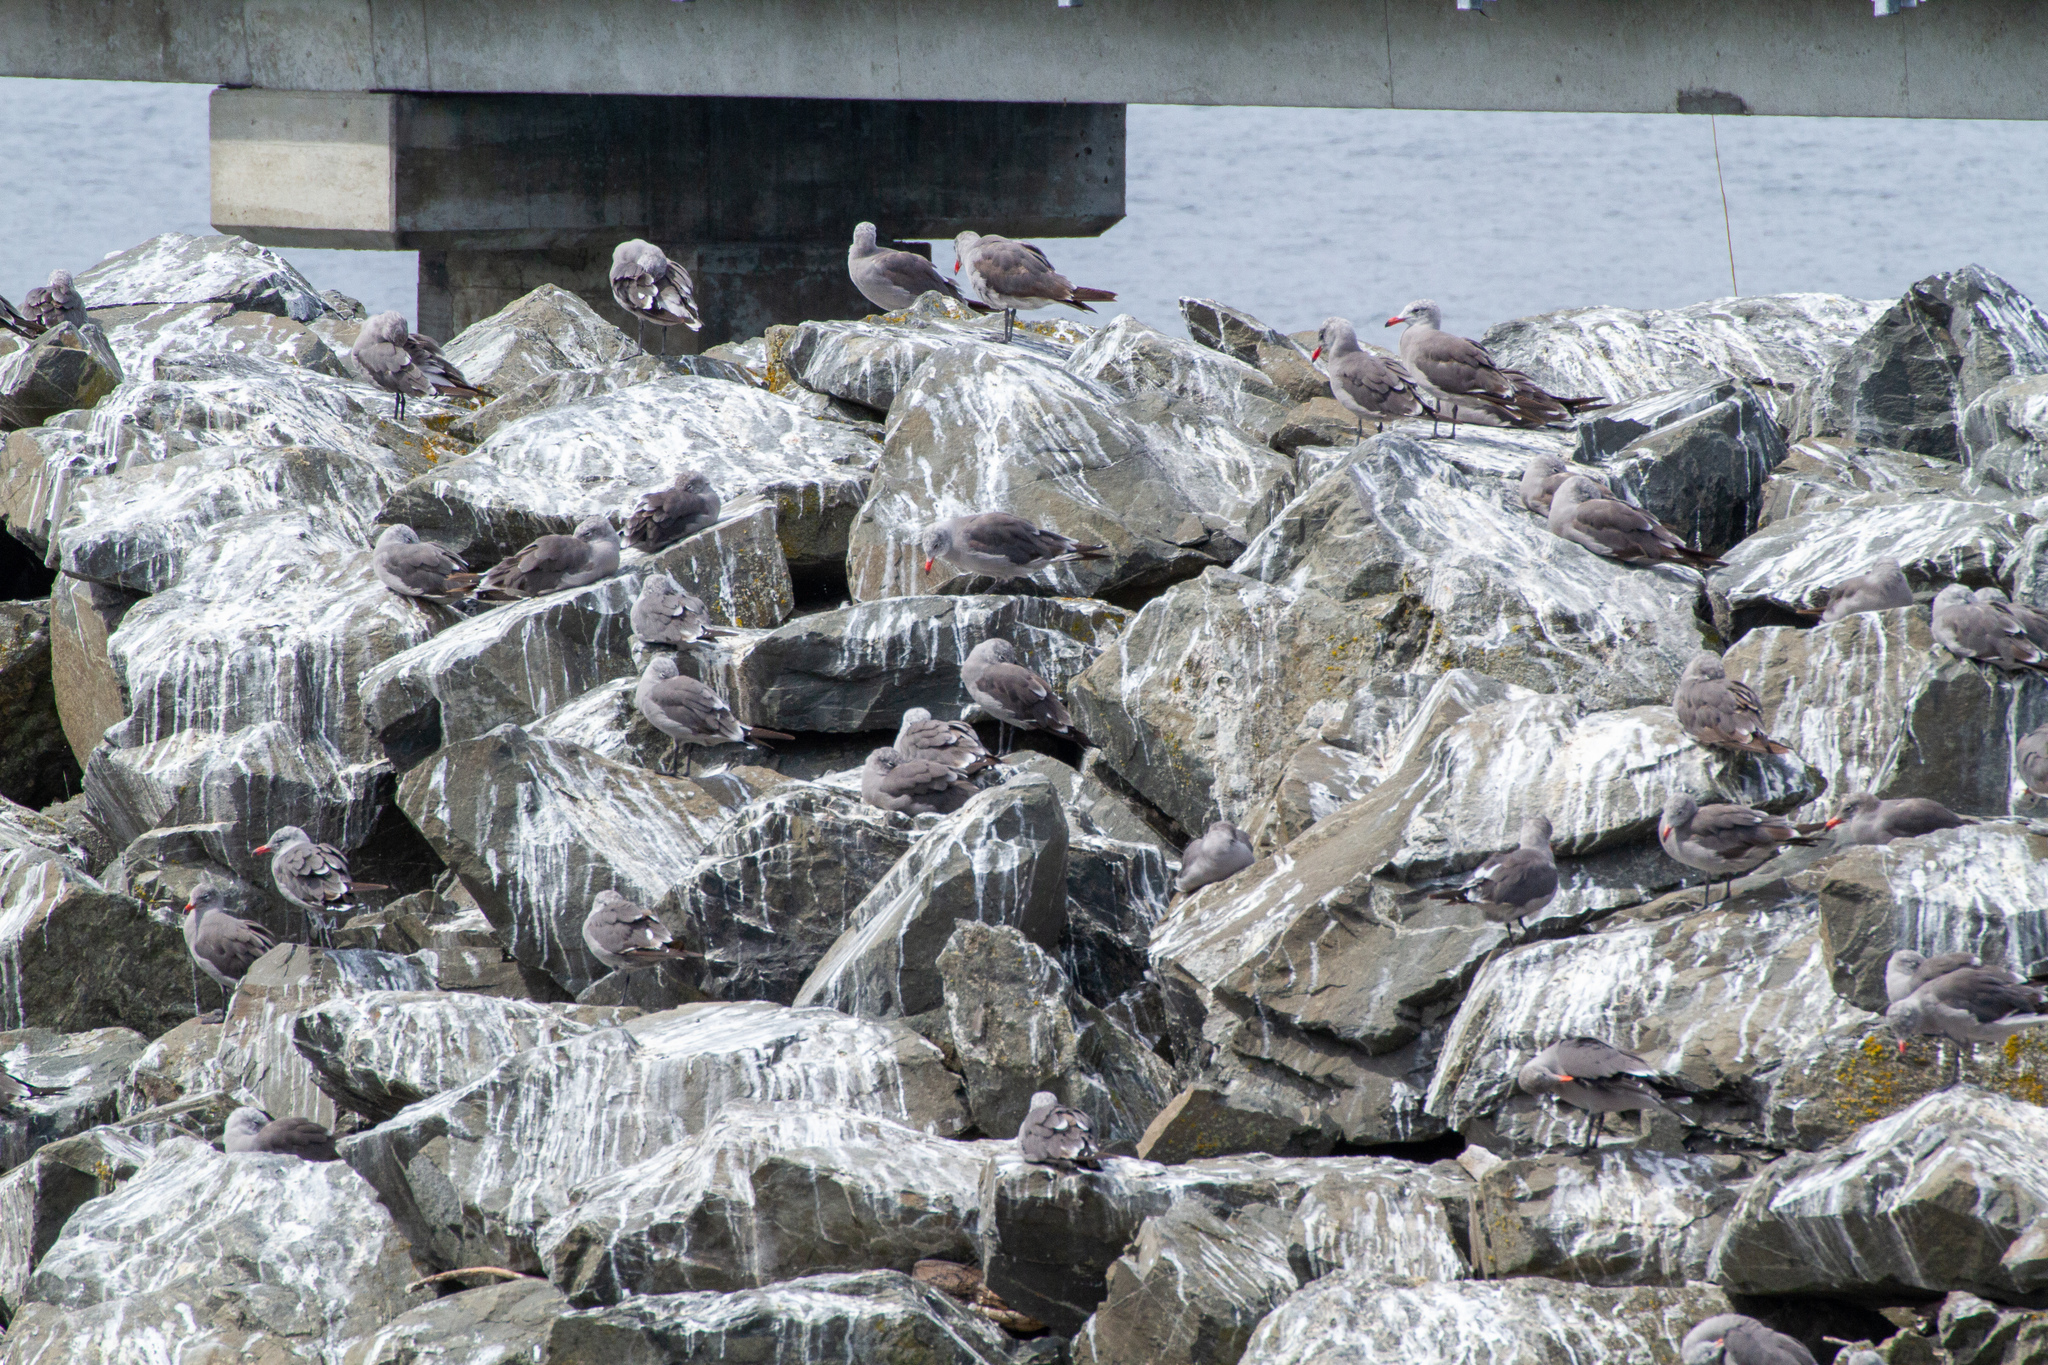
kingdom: Animalia
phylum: Chordata
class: Aves
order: Charadriiformes
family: Laridae
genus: Larus
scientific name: Larus heermanni
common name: Heermann's gull
